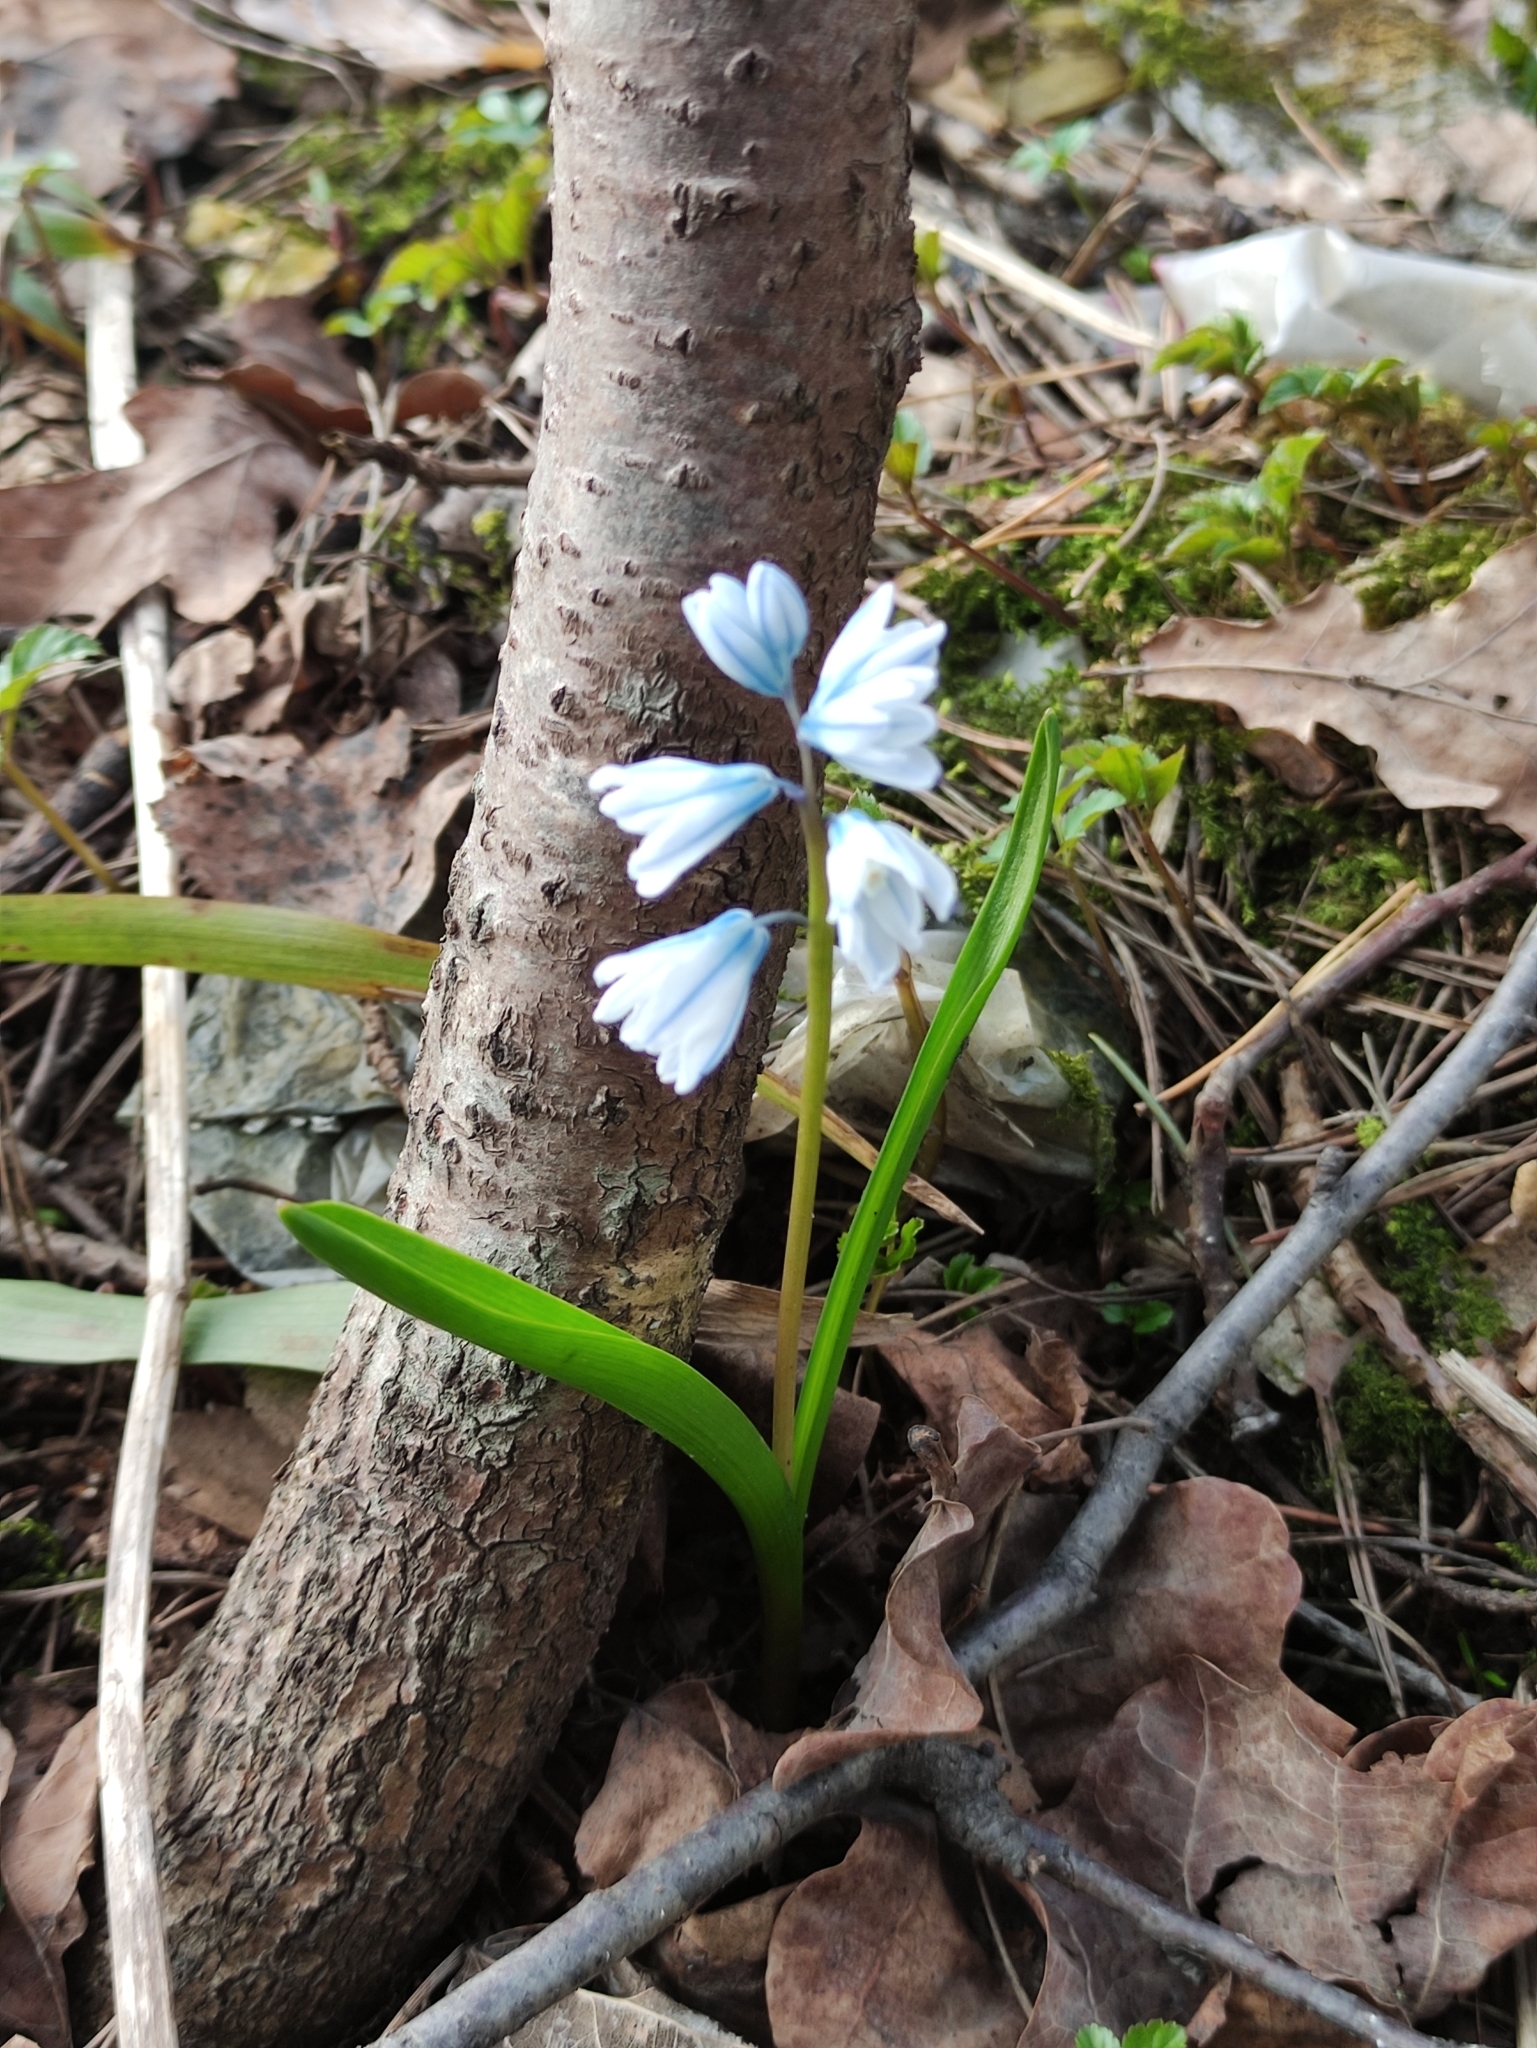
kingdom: Plantae
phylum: Tracheophyta
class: Liliopsida
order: Asparagales
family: Asparagaceae
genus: Puschkinia
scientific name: Puschkinia scilloides
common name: Striped squill
